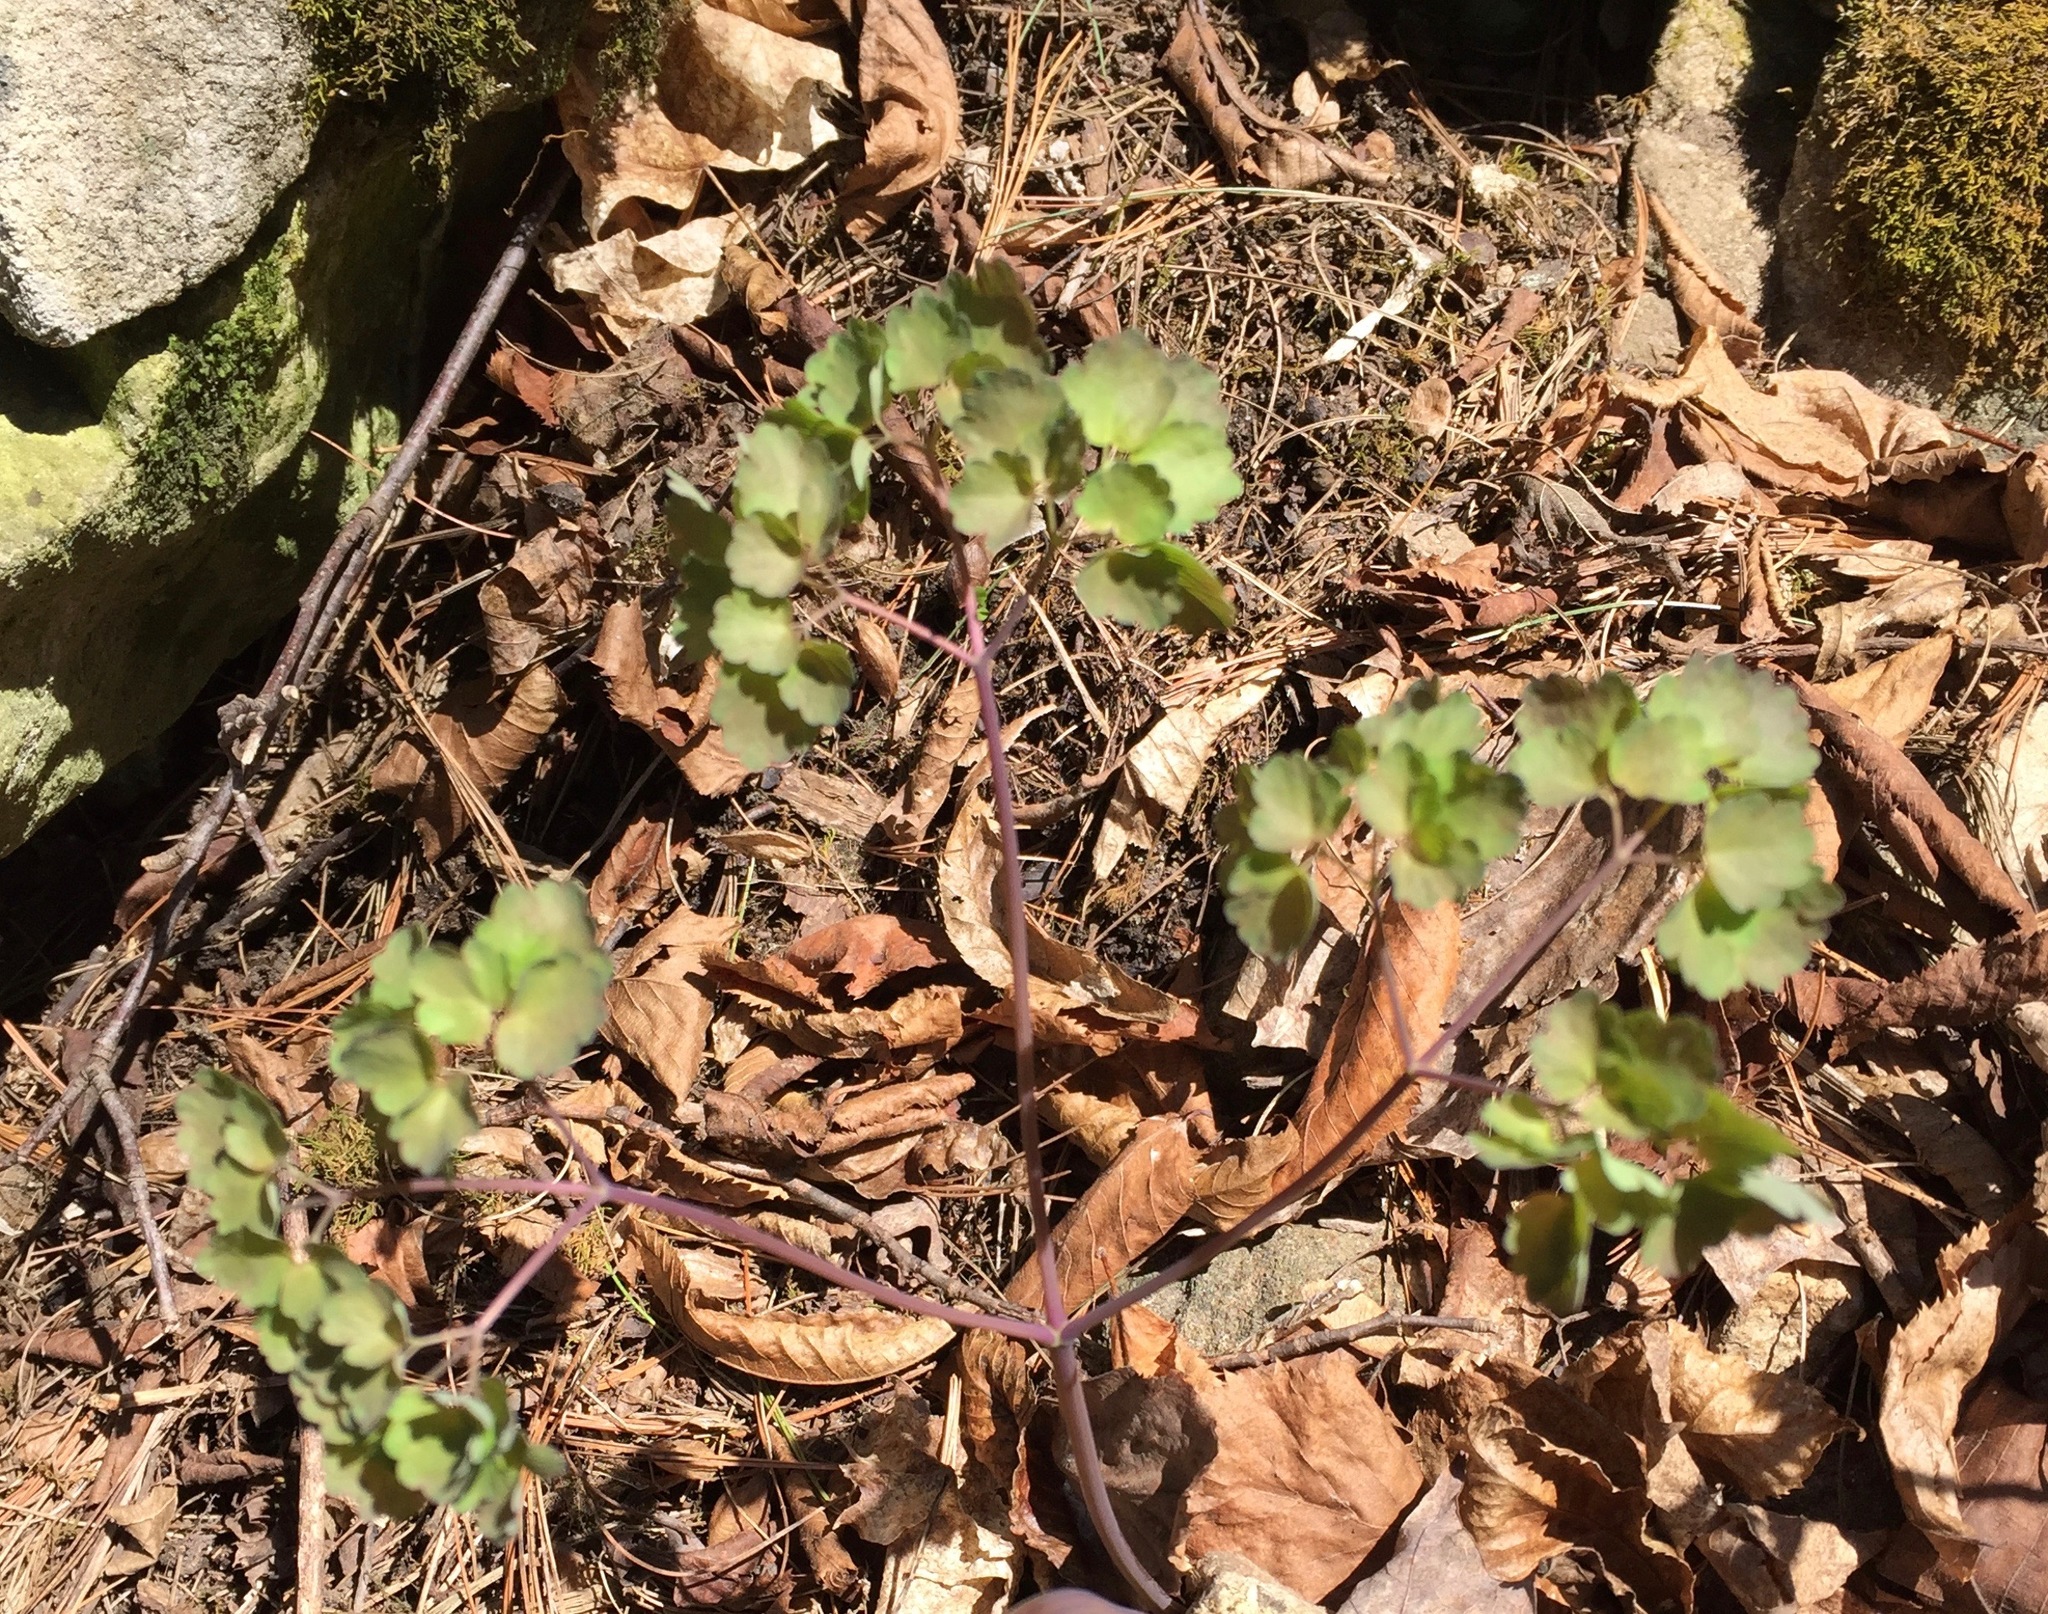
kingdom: Plantae
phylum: Tracheophyta
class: Magnoliopsida
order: Ranunculales
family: Ranunculaceae
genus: Thalictrum
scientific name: Thalictrum dioicum
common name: Early meadow-rue
